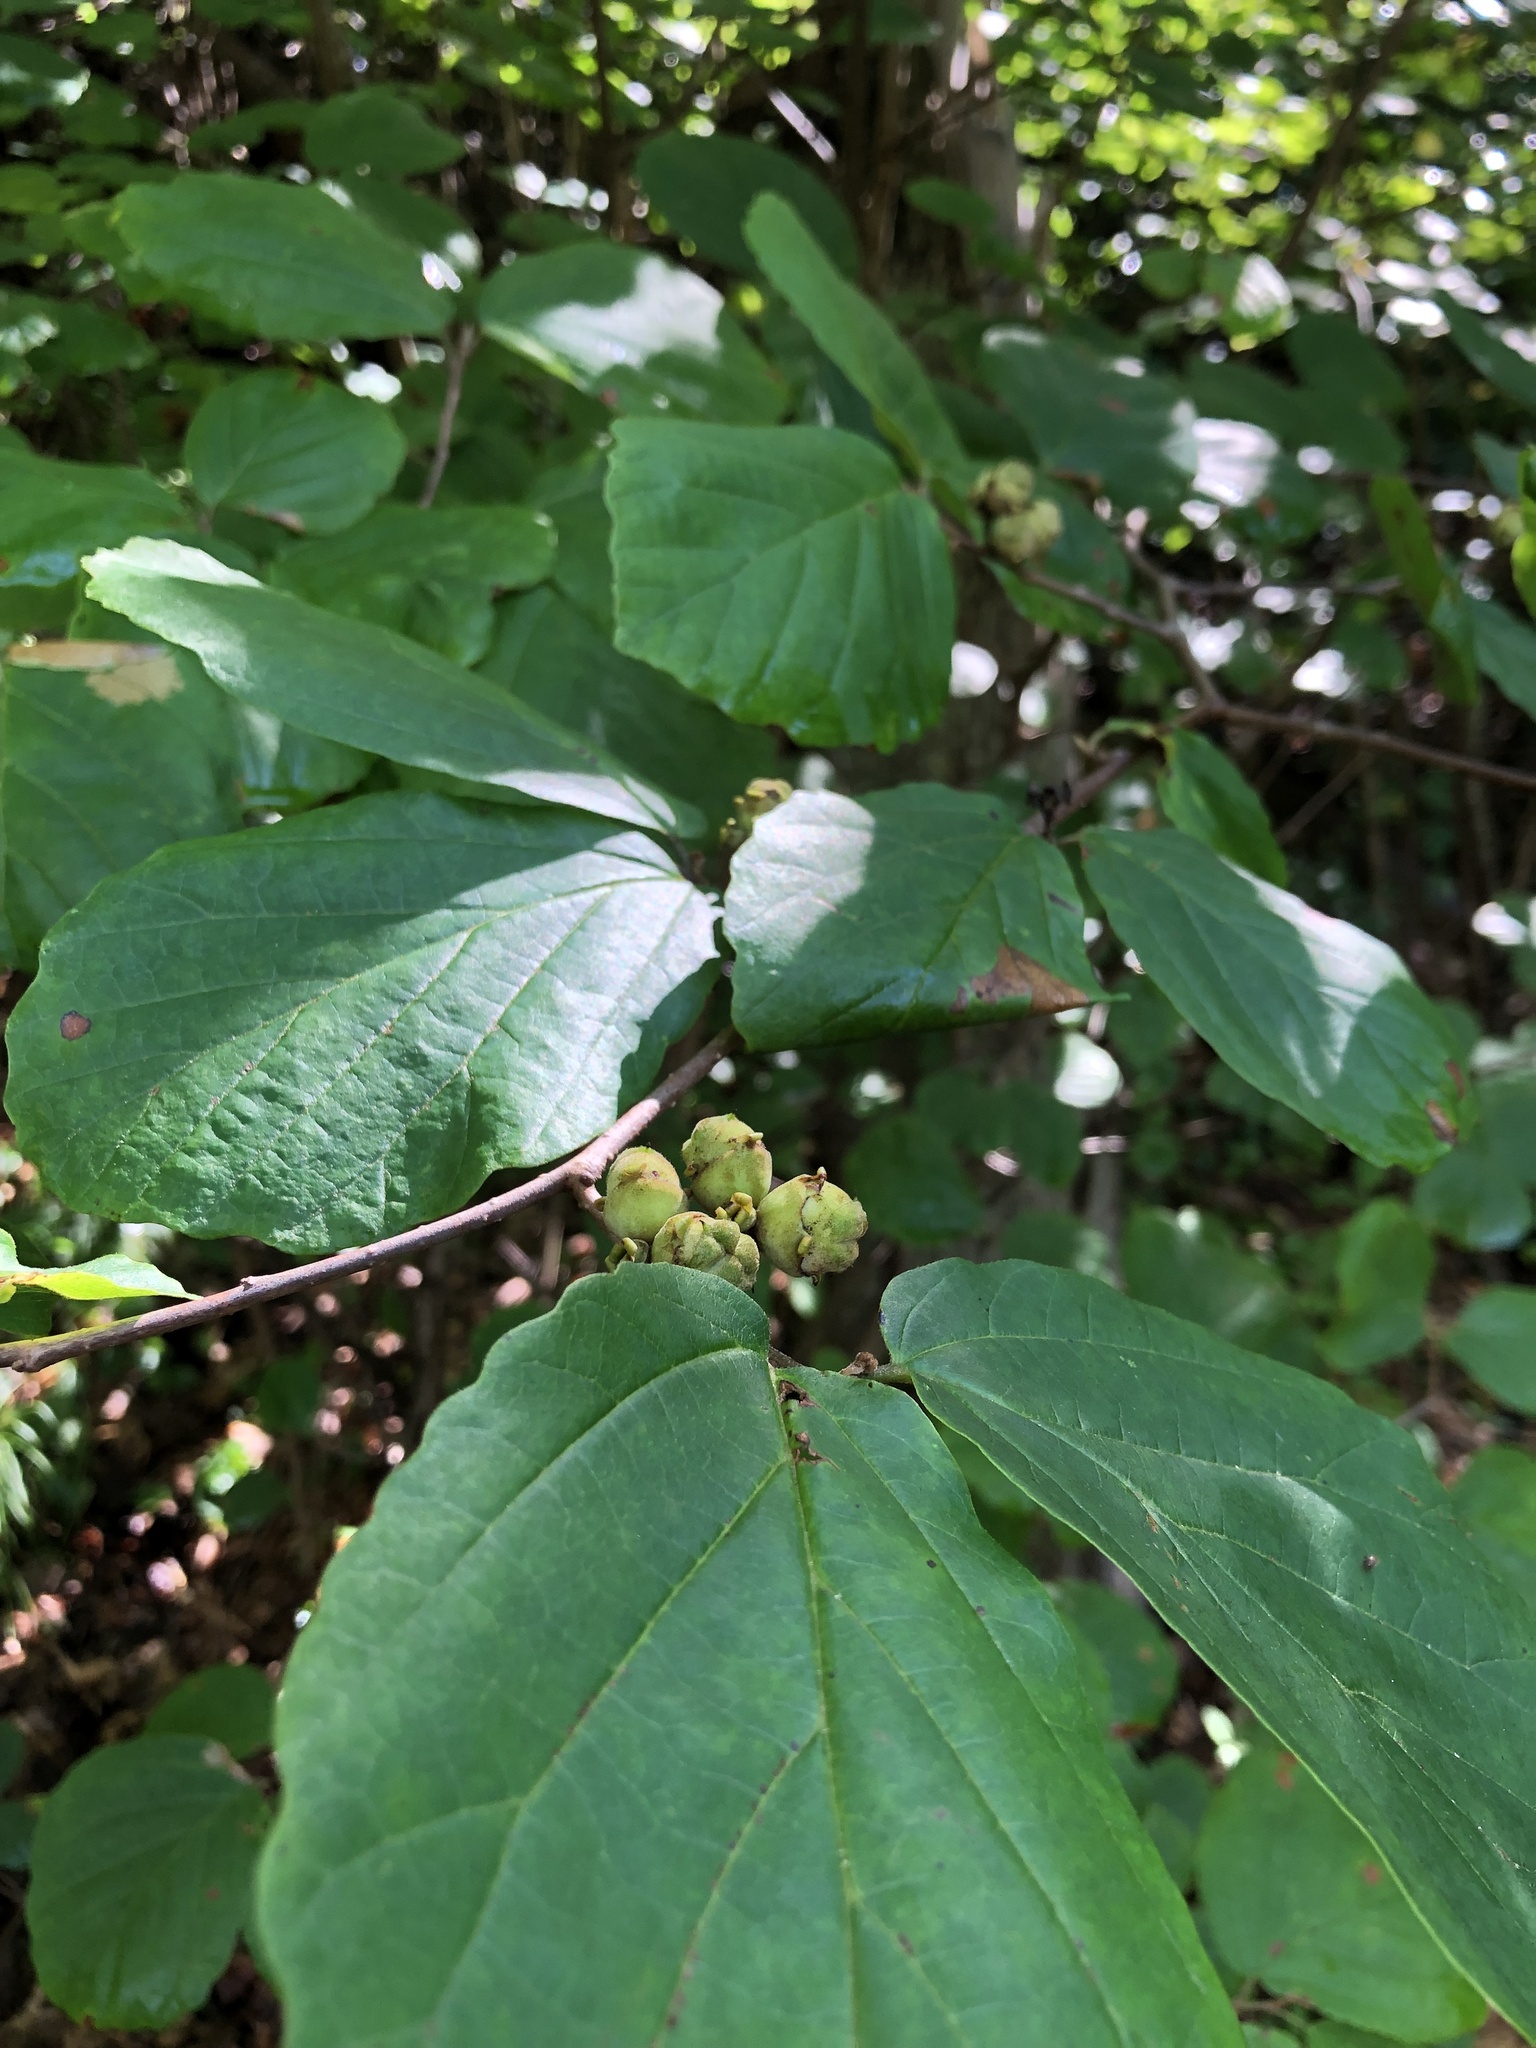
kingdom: Plantae
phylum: Tracheophyta
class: Magnoliopsida
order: Saxifragales
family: Hamamelidaceae
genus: Hamamelis
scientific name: Hamamelis virginiana
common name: Witch-hazel
